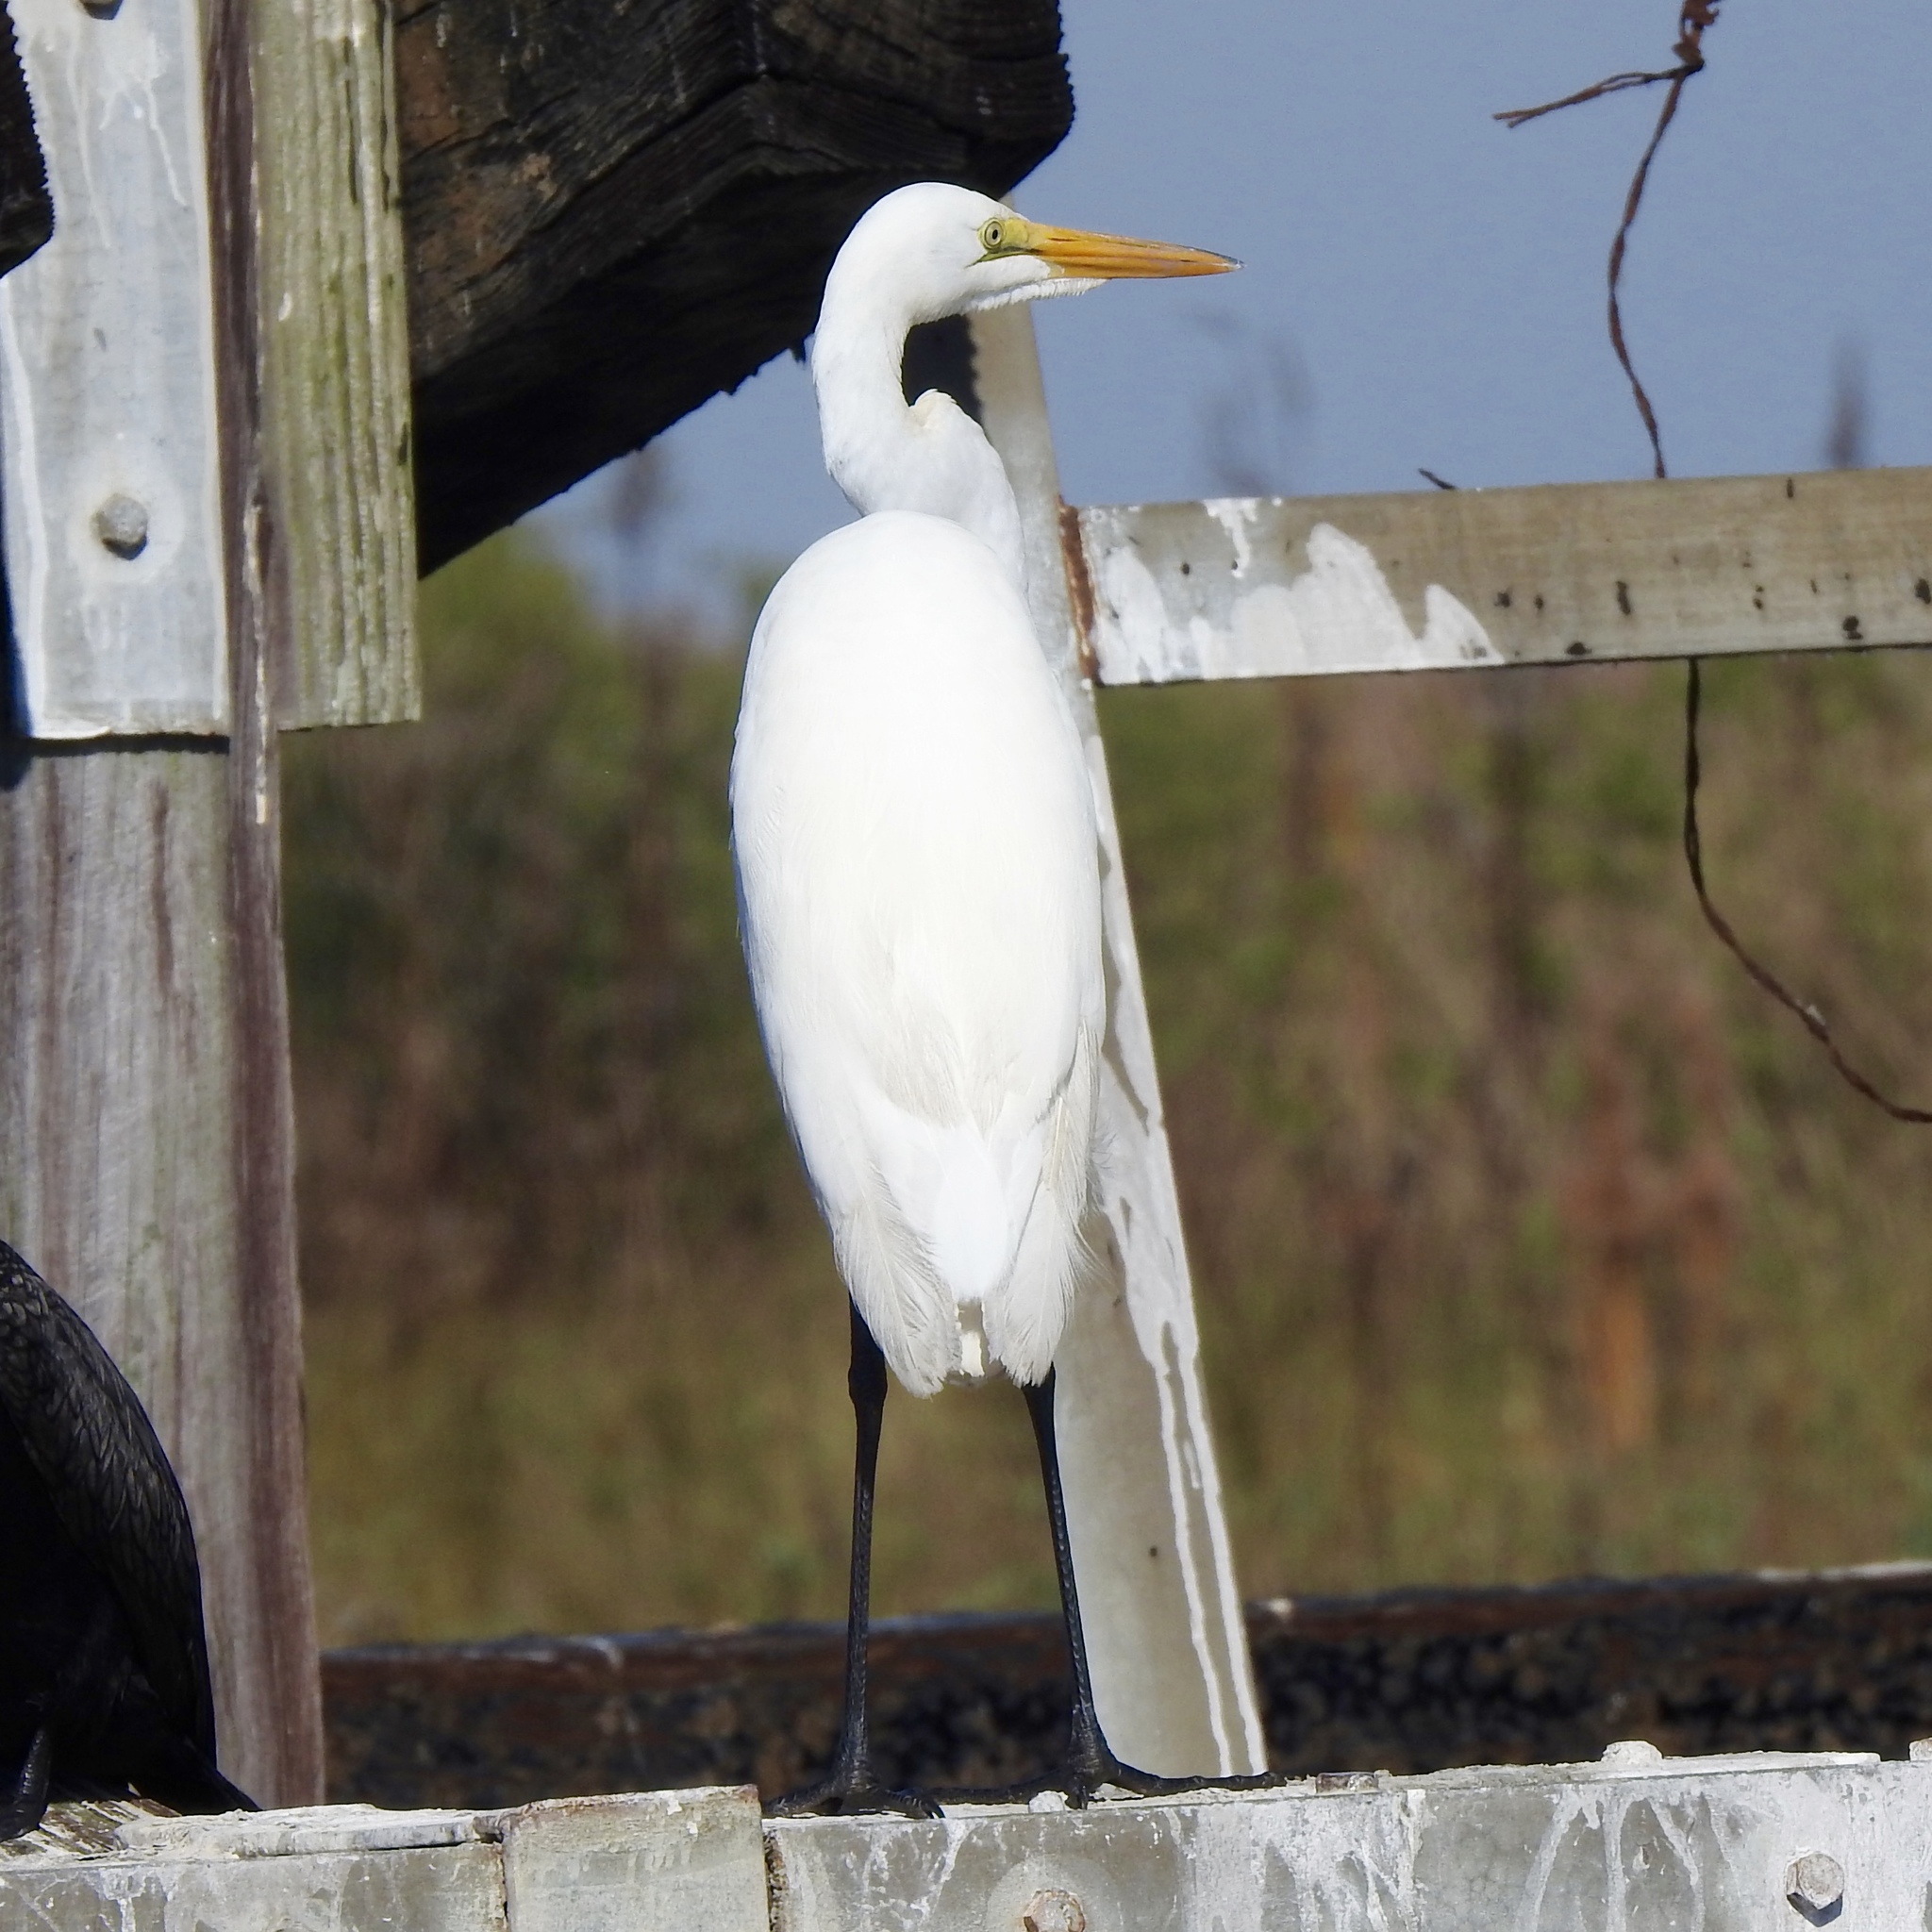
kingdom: Animalia
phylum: Chordata
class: Aves
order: Pelecaniformes
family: Ardeidae
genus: Ardea
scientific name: Ardea alba
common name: Great egret
